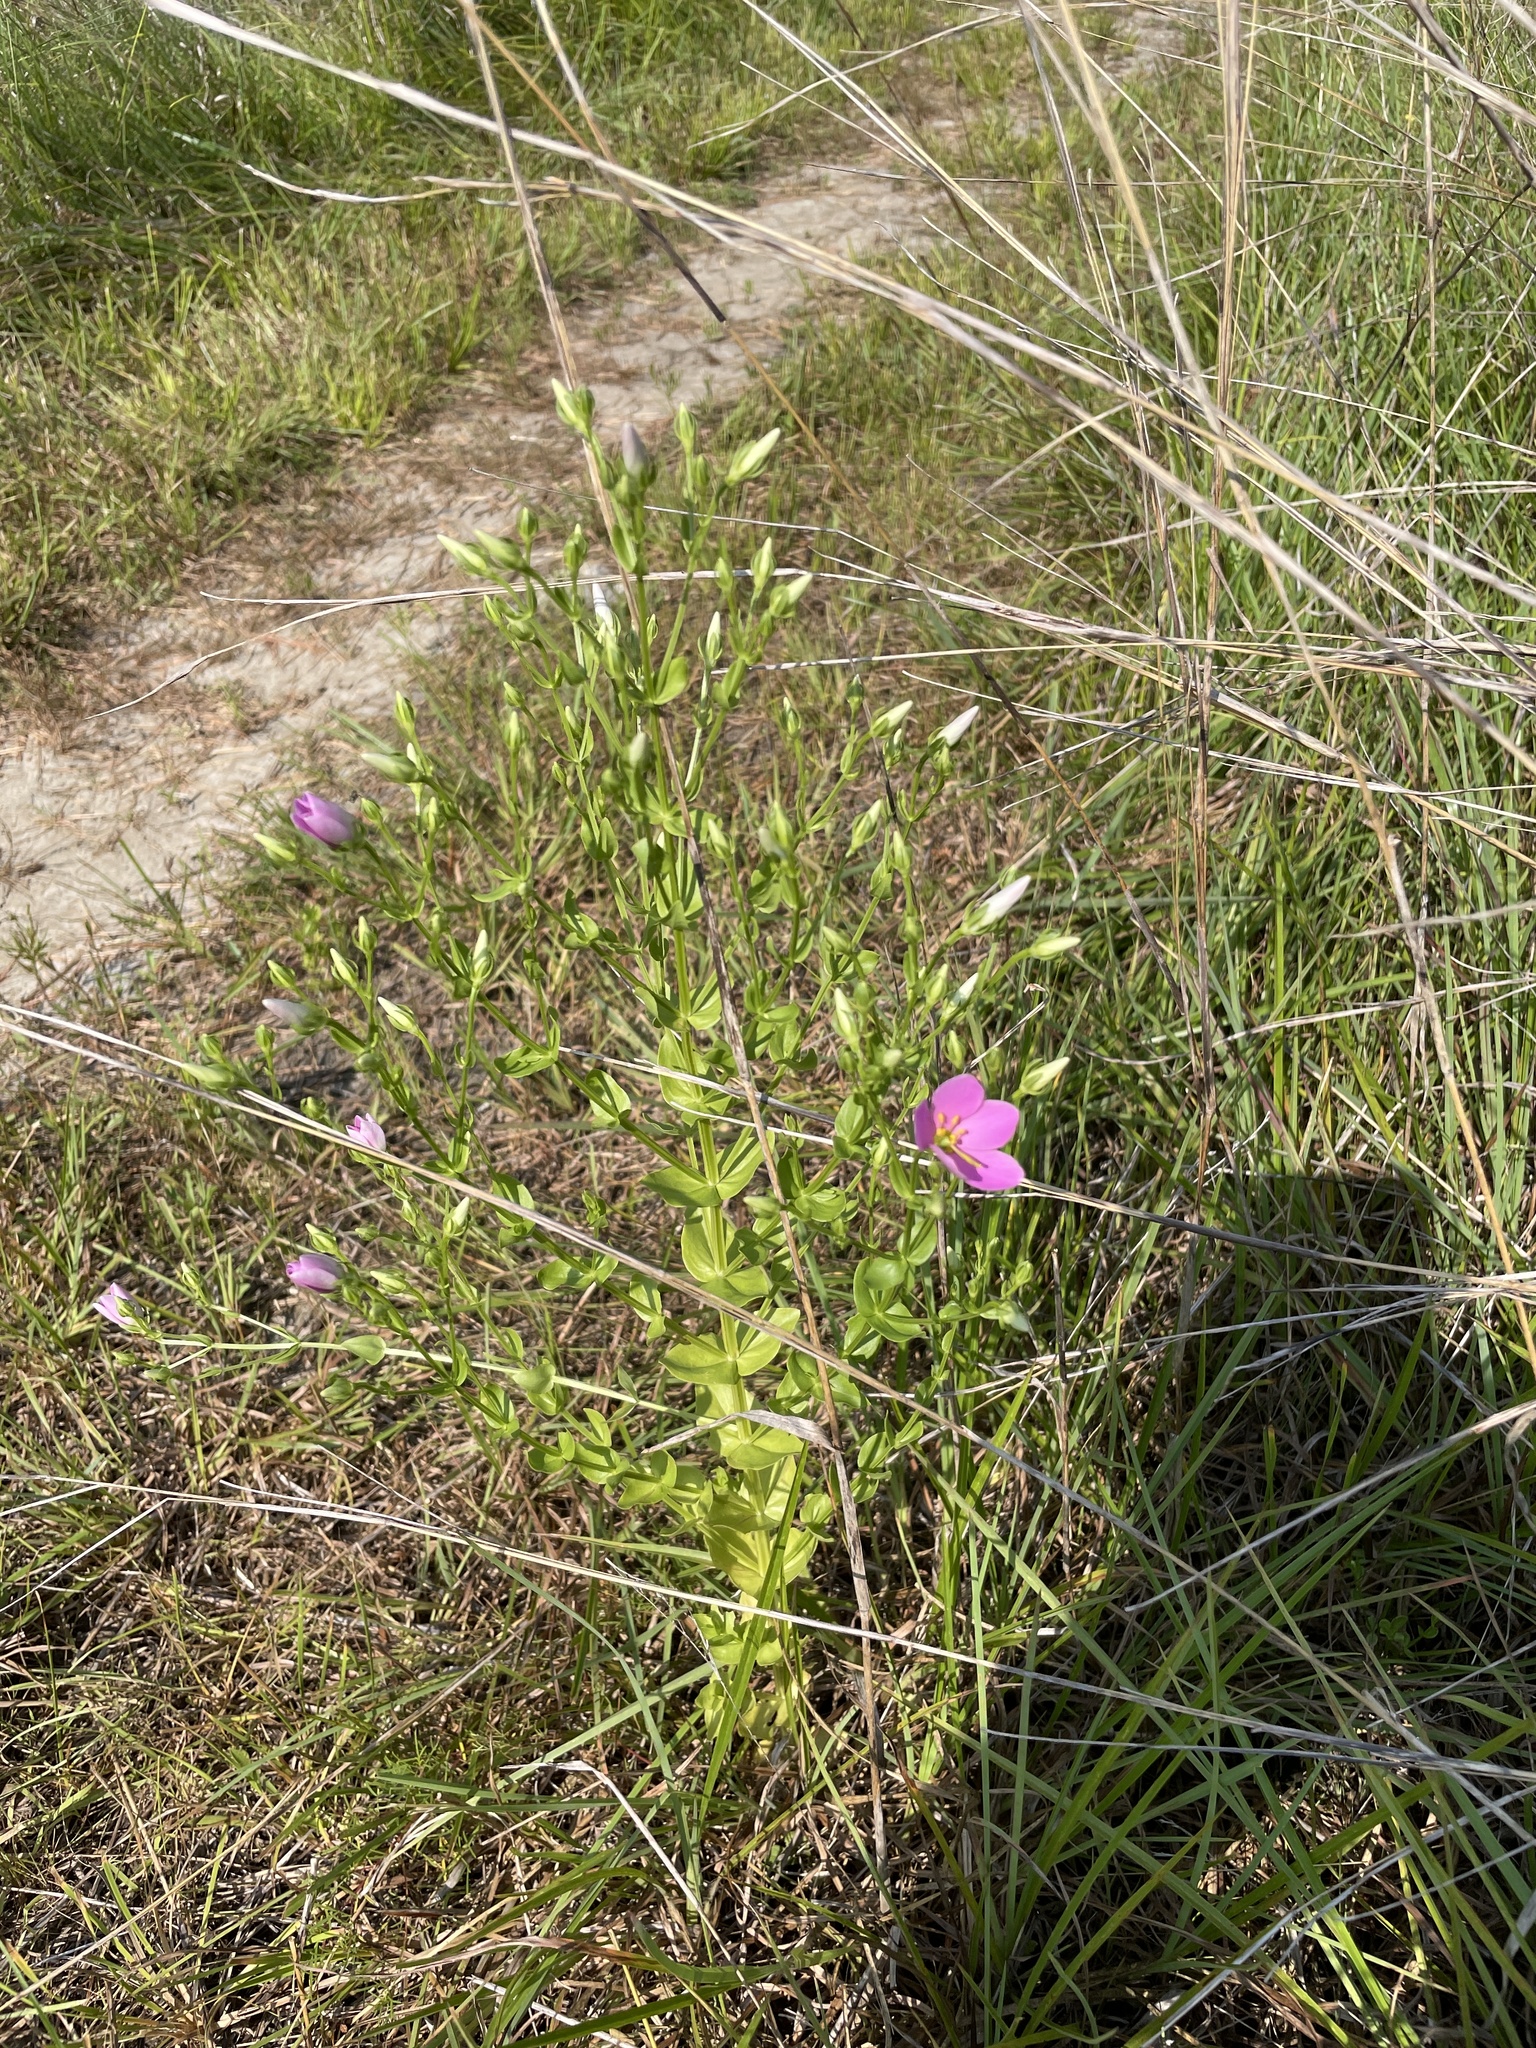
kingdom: Plantae
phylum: Tracheophyta
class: Magnoliopsida
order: Gentianales
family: Gentianaceae
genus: Sabatia
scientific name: Sabatia angularis
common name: Rose-pink
